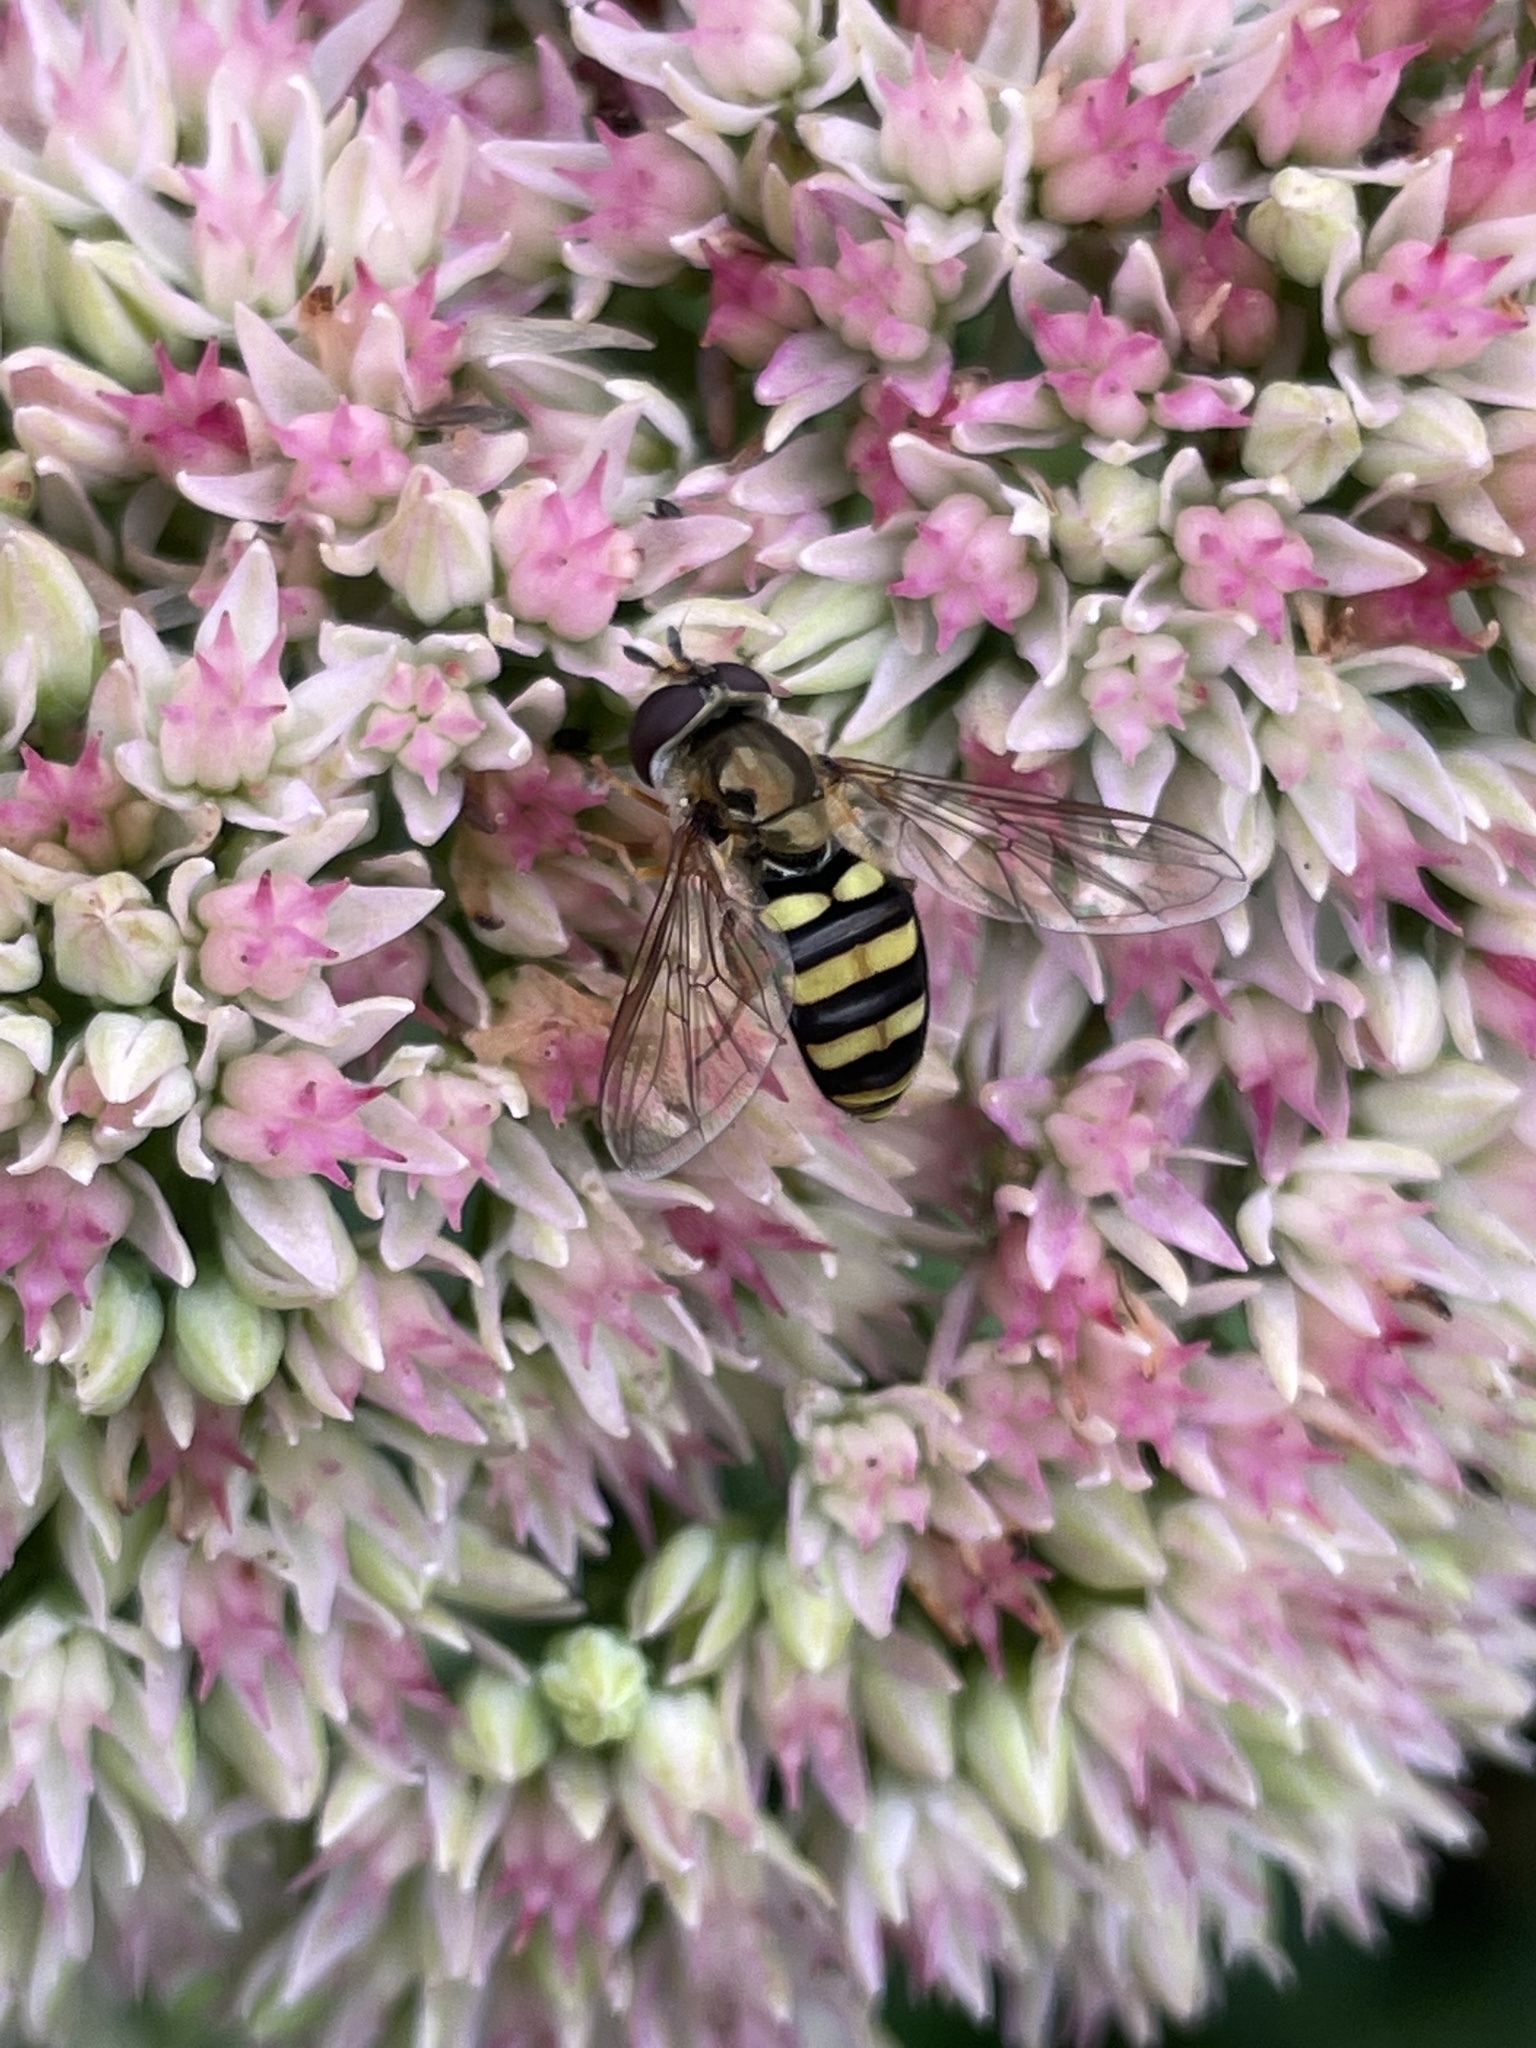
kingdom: Animalia
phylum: Arthropoda
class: Insecta
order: Diptera
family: Syrphidae
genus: Eupeodes
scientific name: Eupeodes
